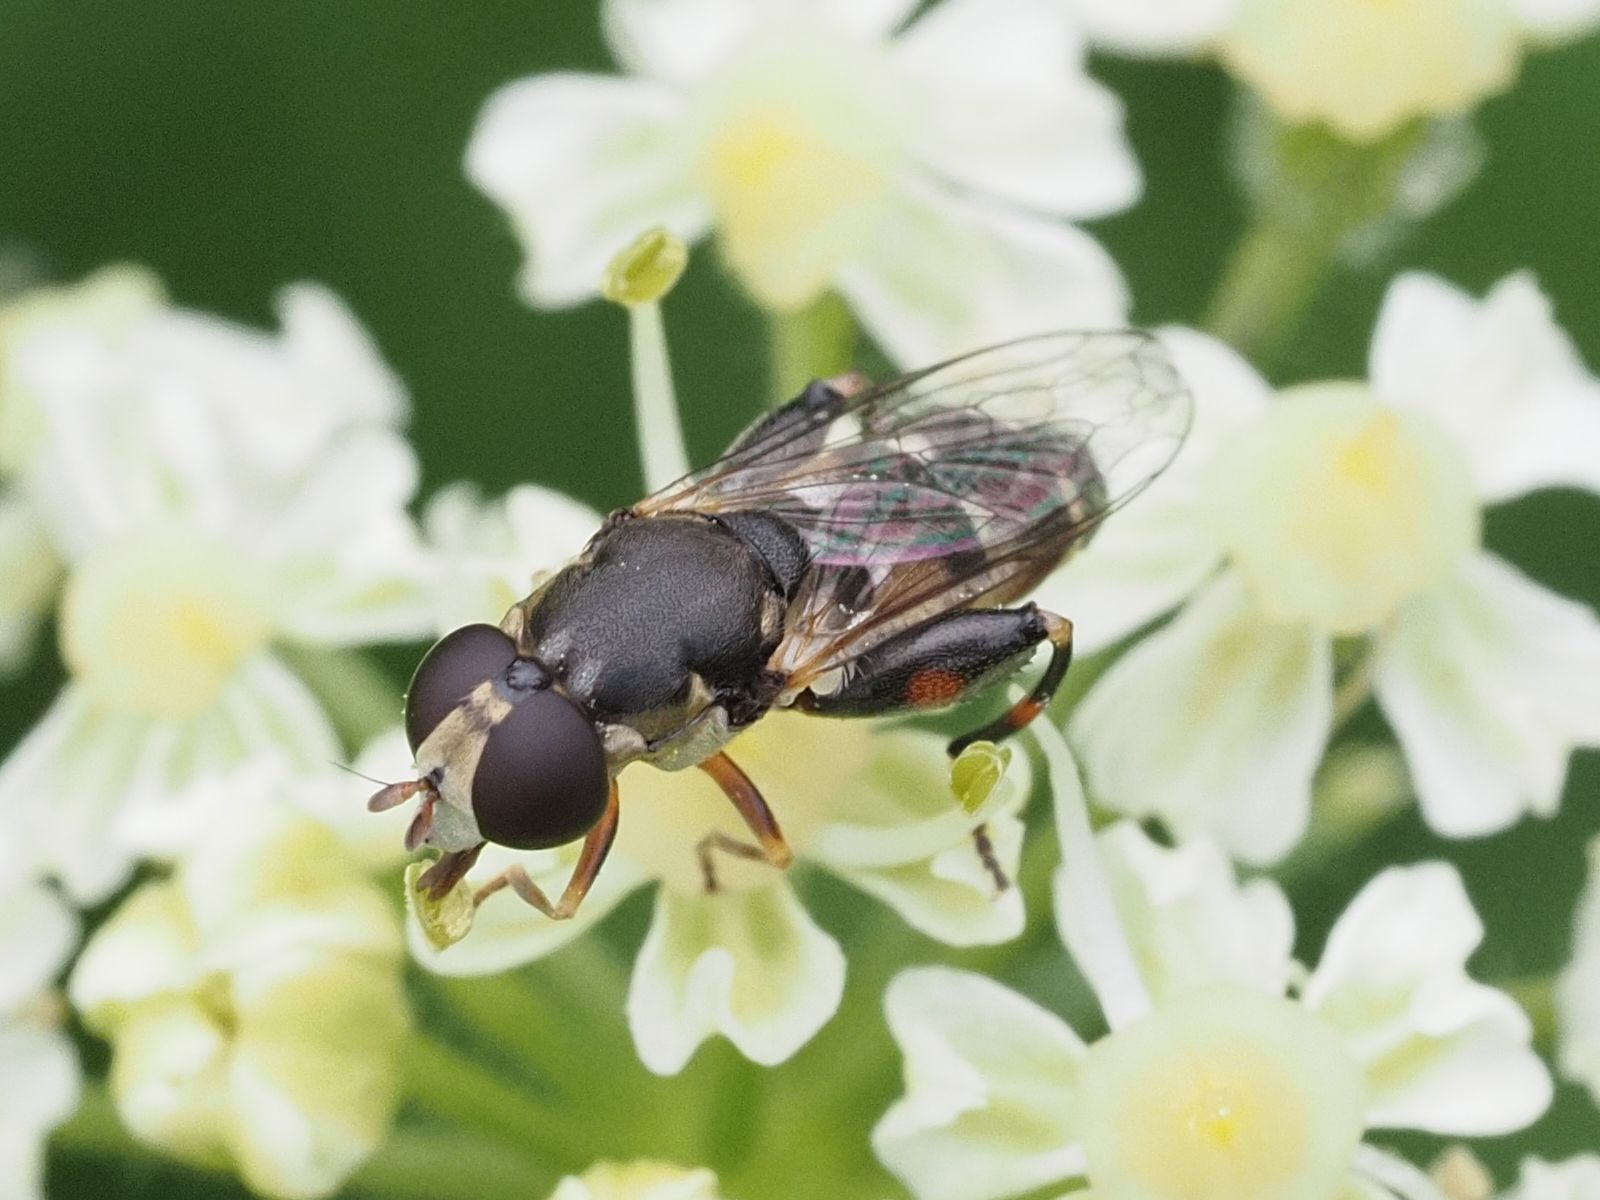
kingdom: Animalia
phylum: Arthropoda
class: Insecta
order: Diptera
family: Syrphidae
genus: Syritta
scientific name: Syritta pipiens
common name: Hover fly
